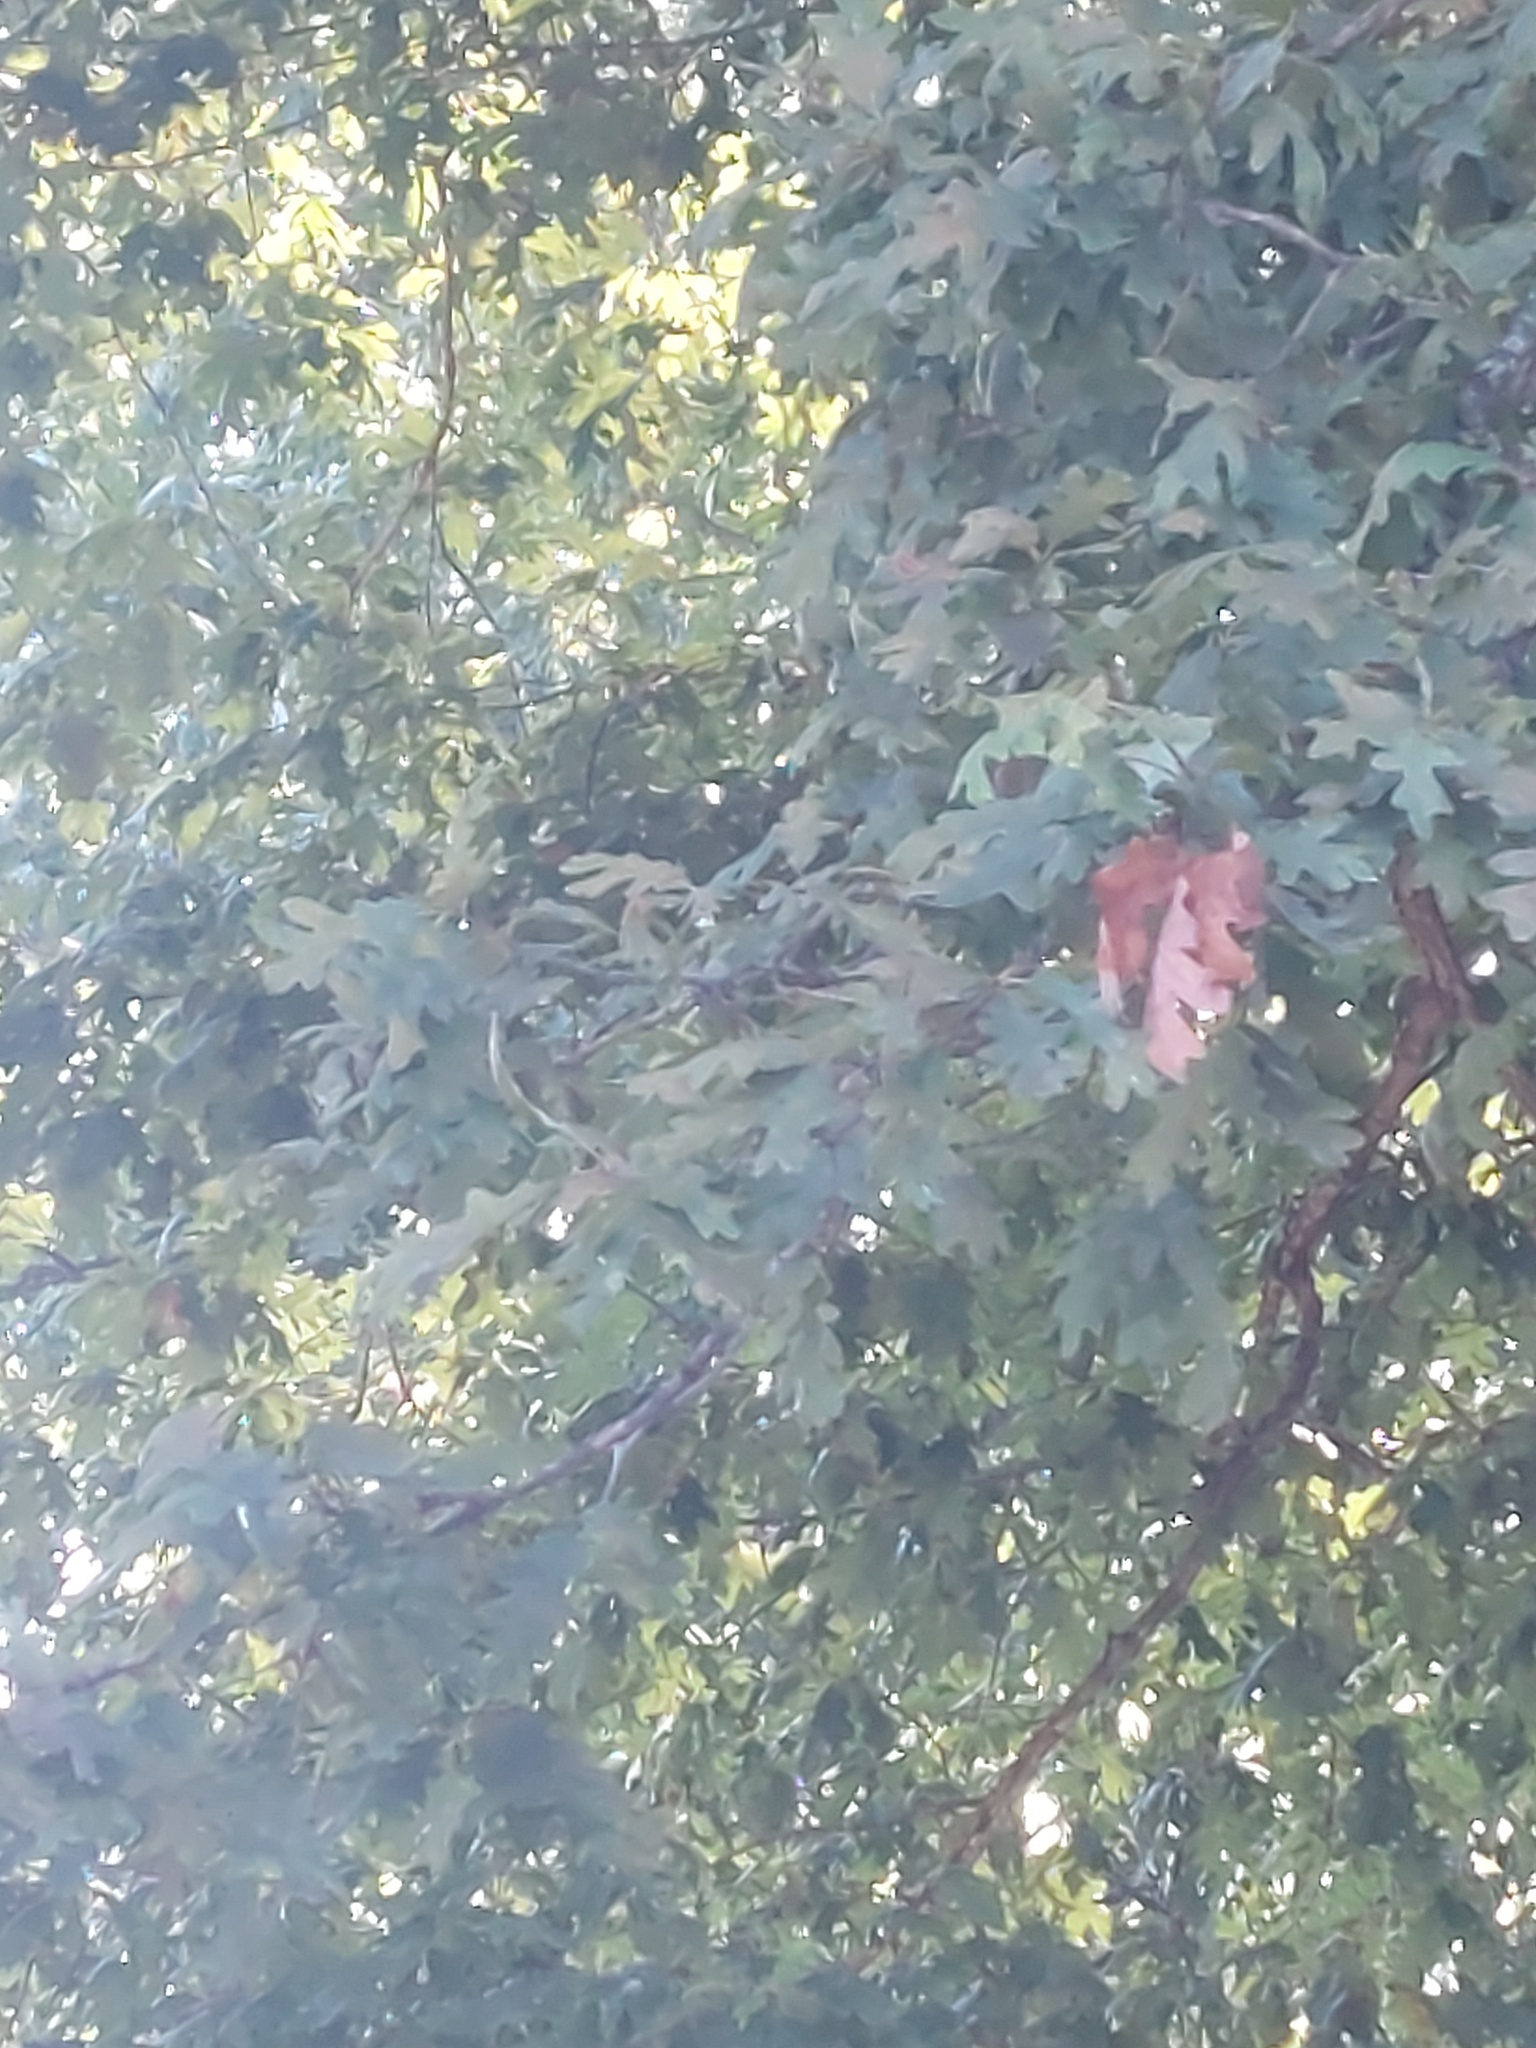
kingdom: Plantae
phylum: Tracheophyta
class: Magnoliopsida
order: Fagales
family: Fagaceae
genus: Quercus
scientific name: Quercus alba
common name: White oak
